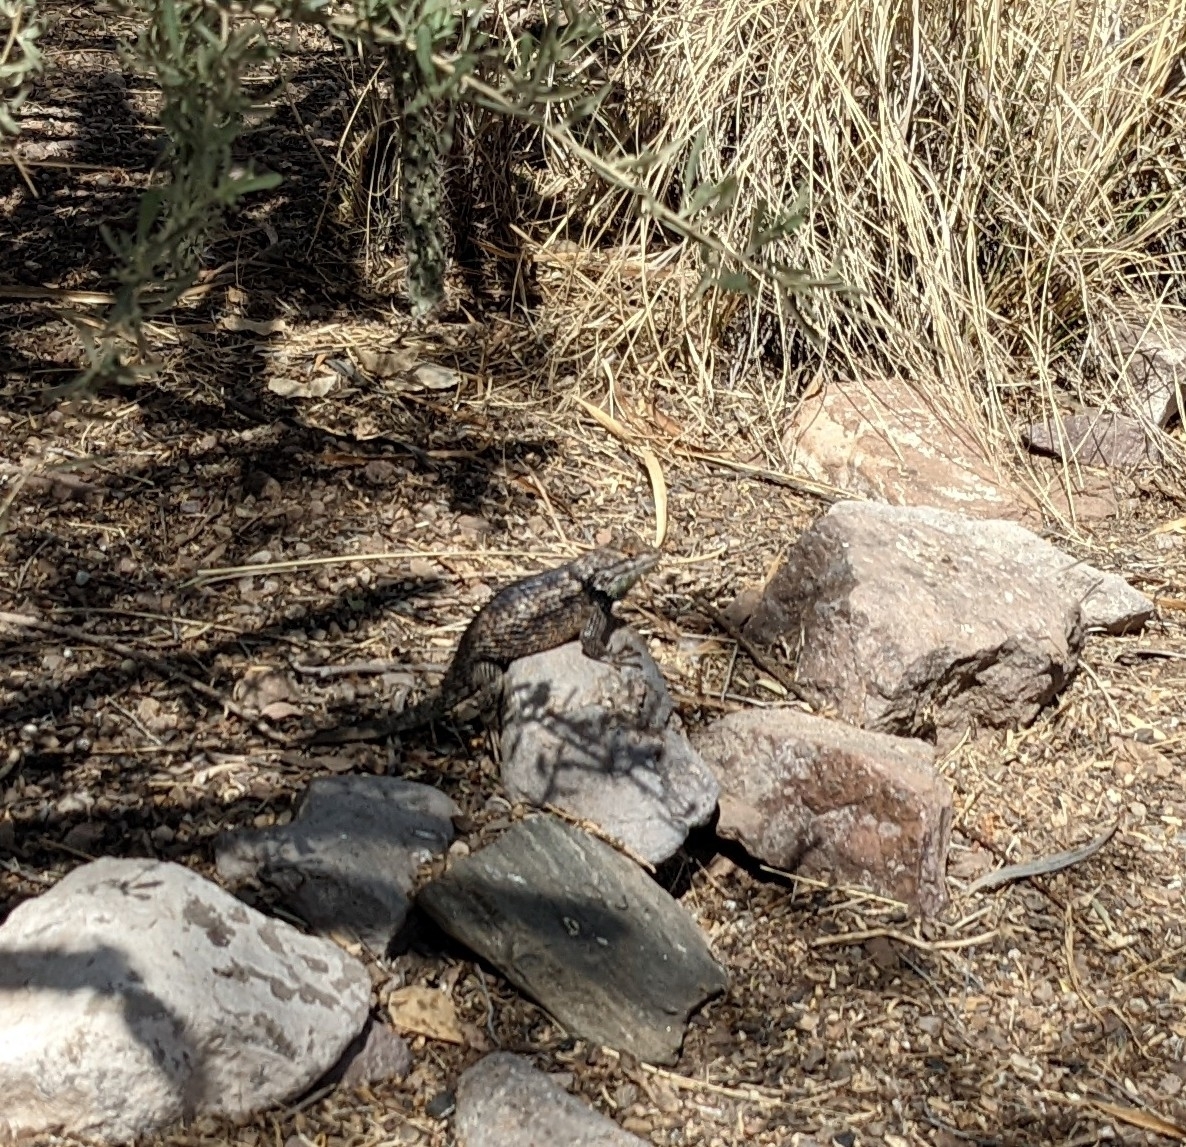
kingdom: Animalia
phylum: Chordata
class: Squamata
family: Phrynosomatidae
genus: Sceloporus
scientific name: Sceloporus bimaculosus
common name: Twin-spotted spiny lizard
